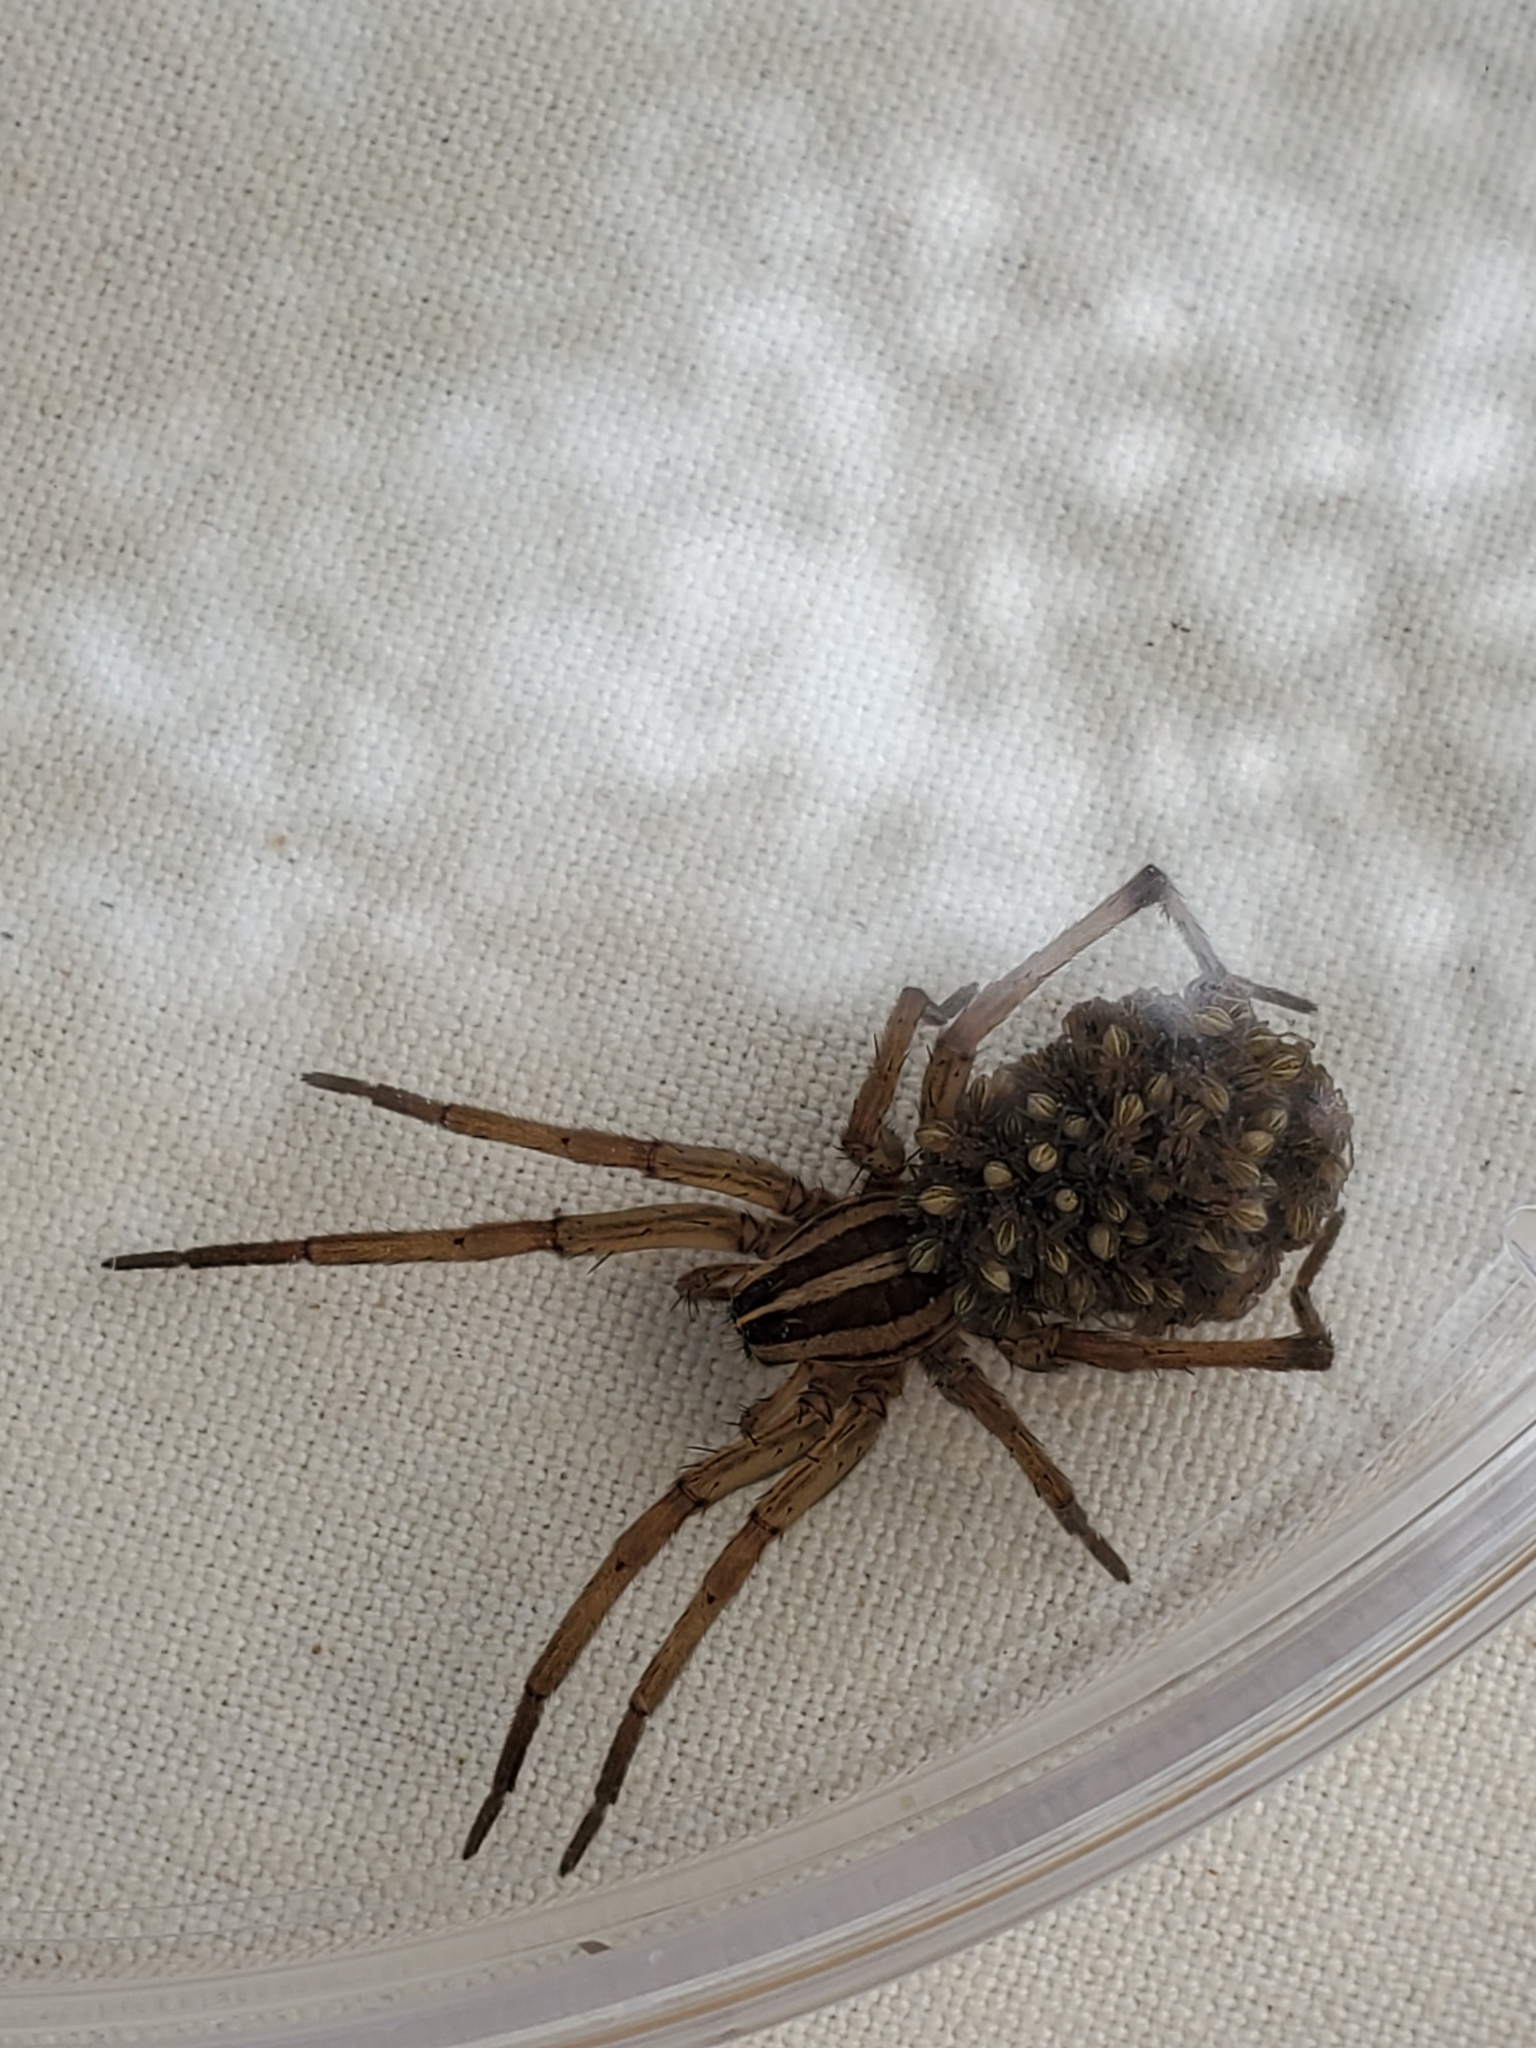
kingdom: Animalia
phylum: Arthropoda
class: Arachnida
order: Araneae
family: Lycosidae
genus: Rabidosa
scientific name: Rabidosa
